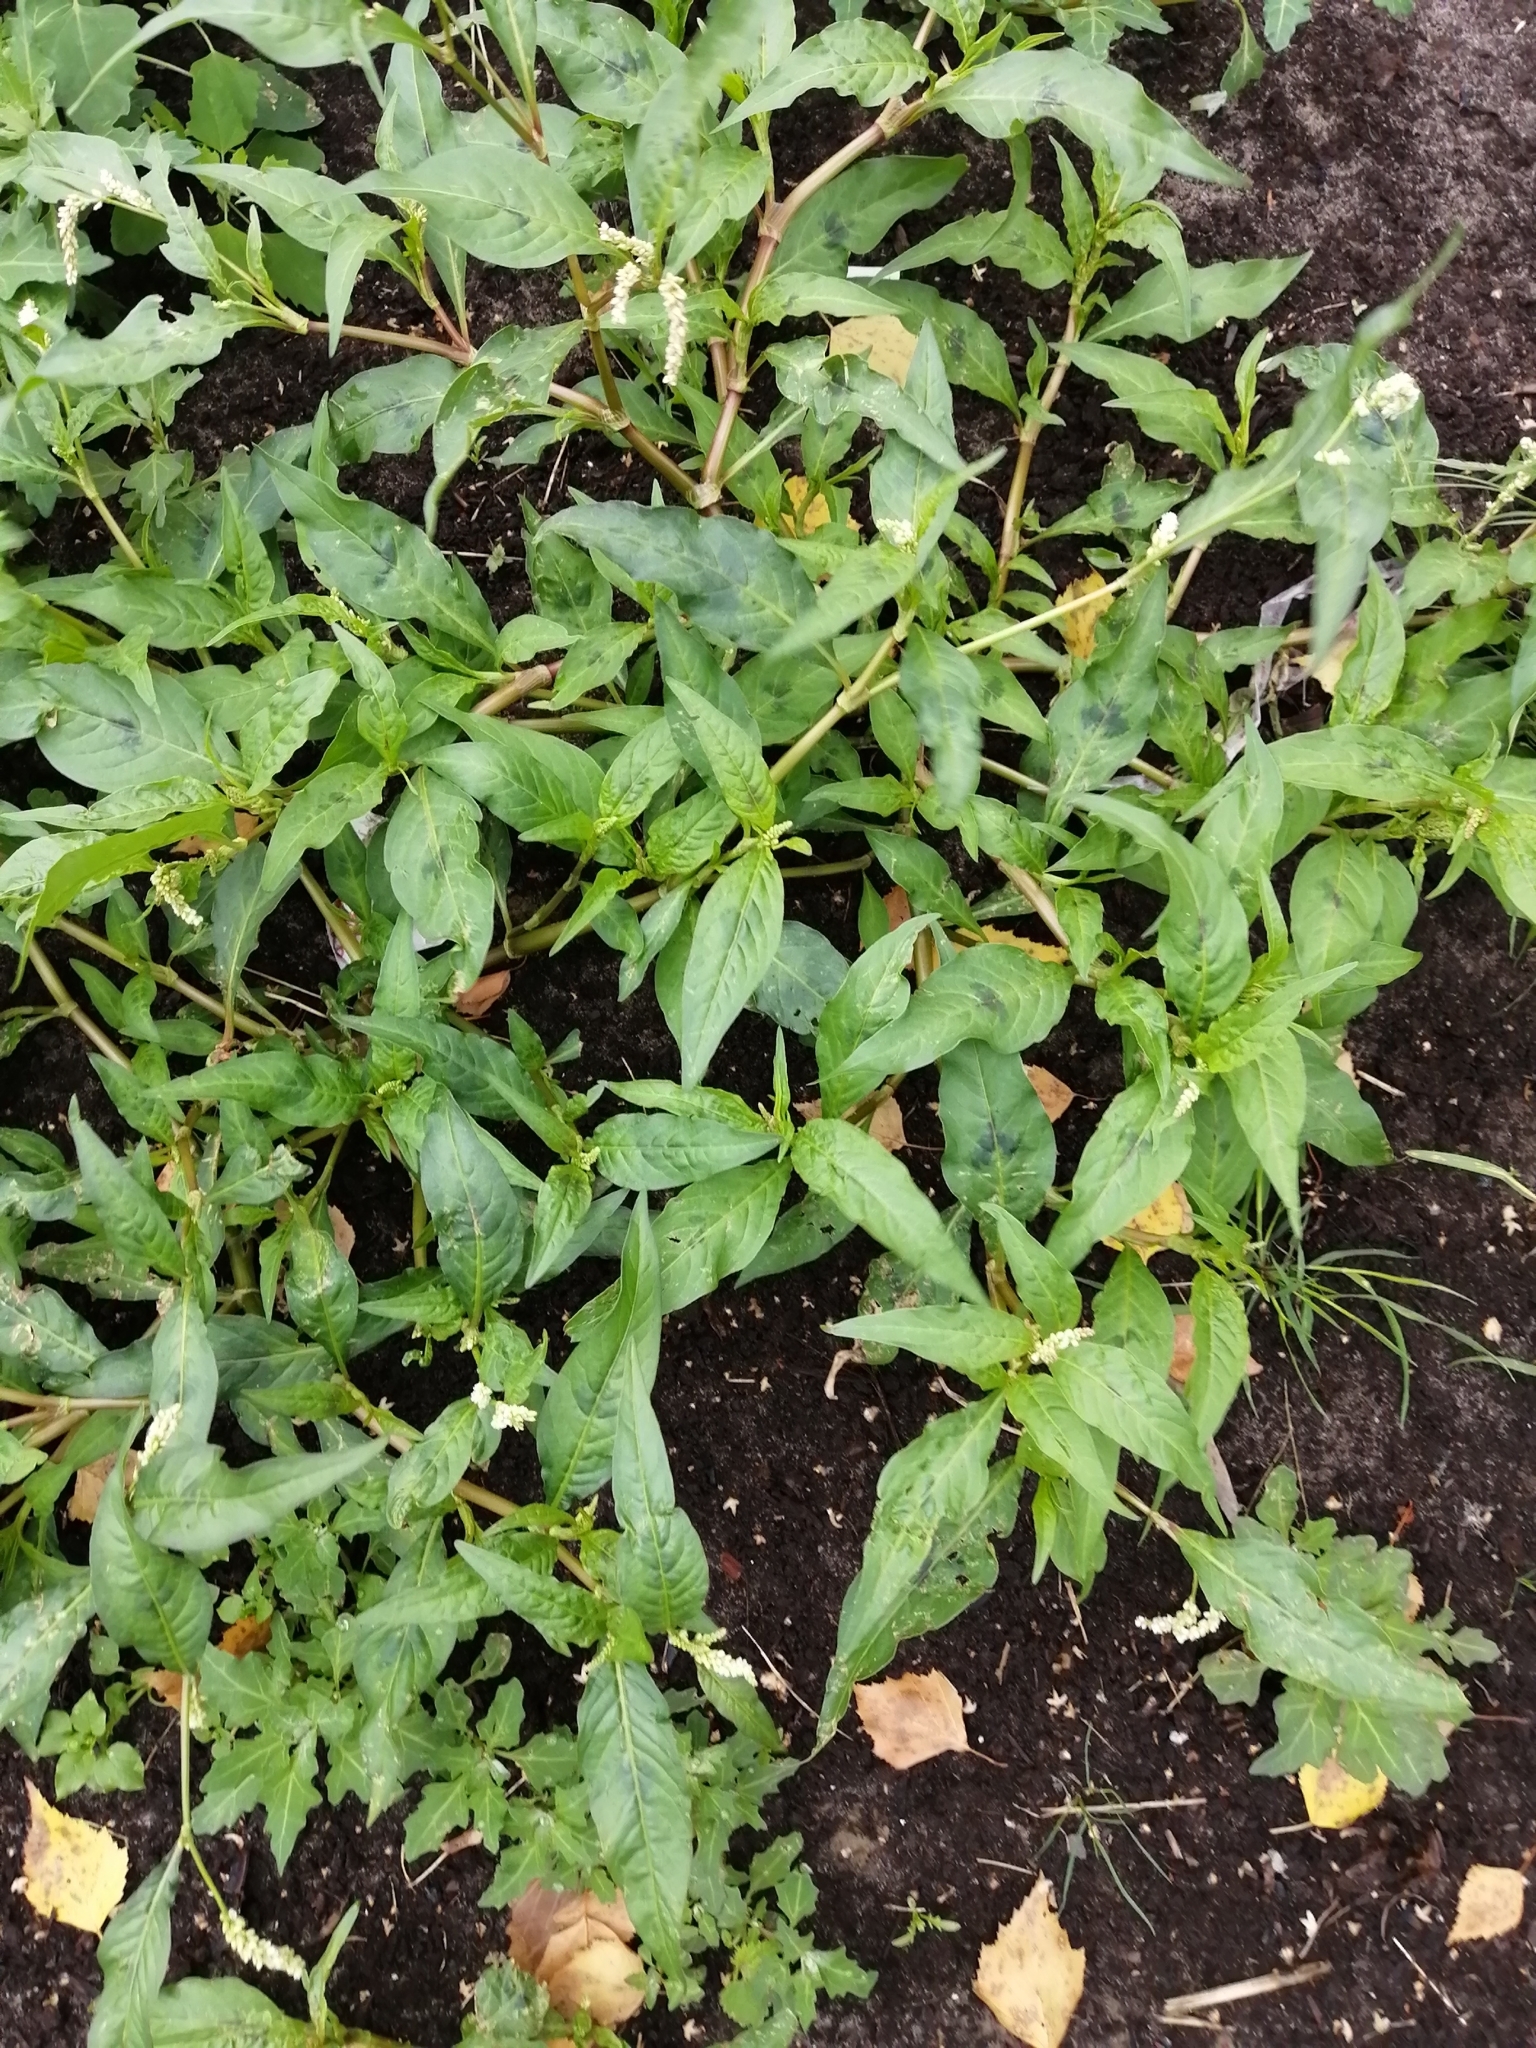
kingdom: Plantae
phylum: Tracheophyta
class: Magnoliopsida
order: Caryophyllales
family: Polygonaceae
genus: Persicaria
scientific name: Persicaria maculosa
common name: Redshank
